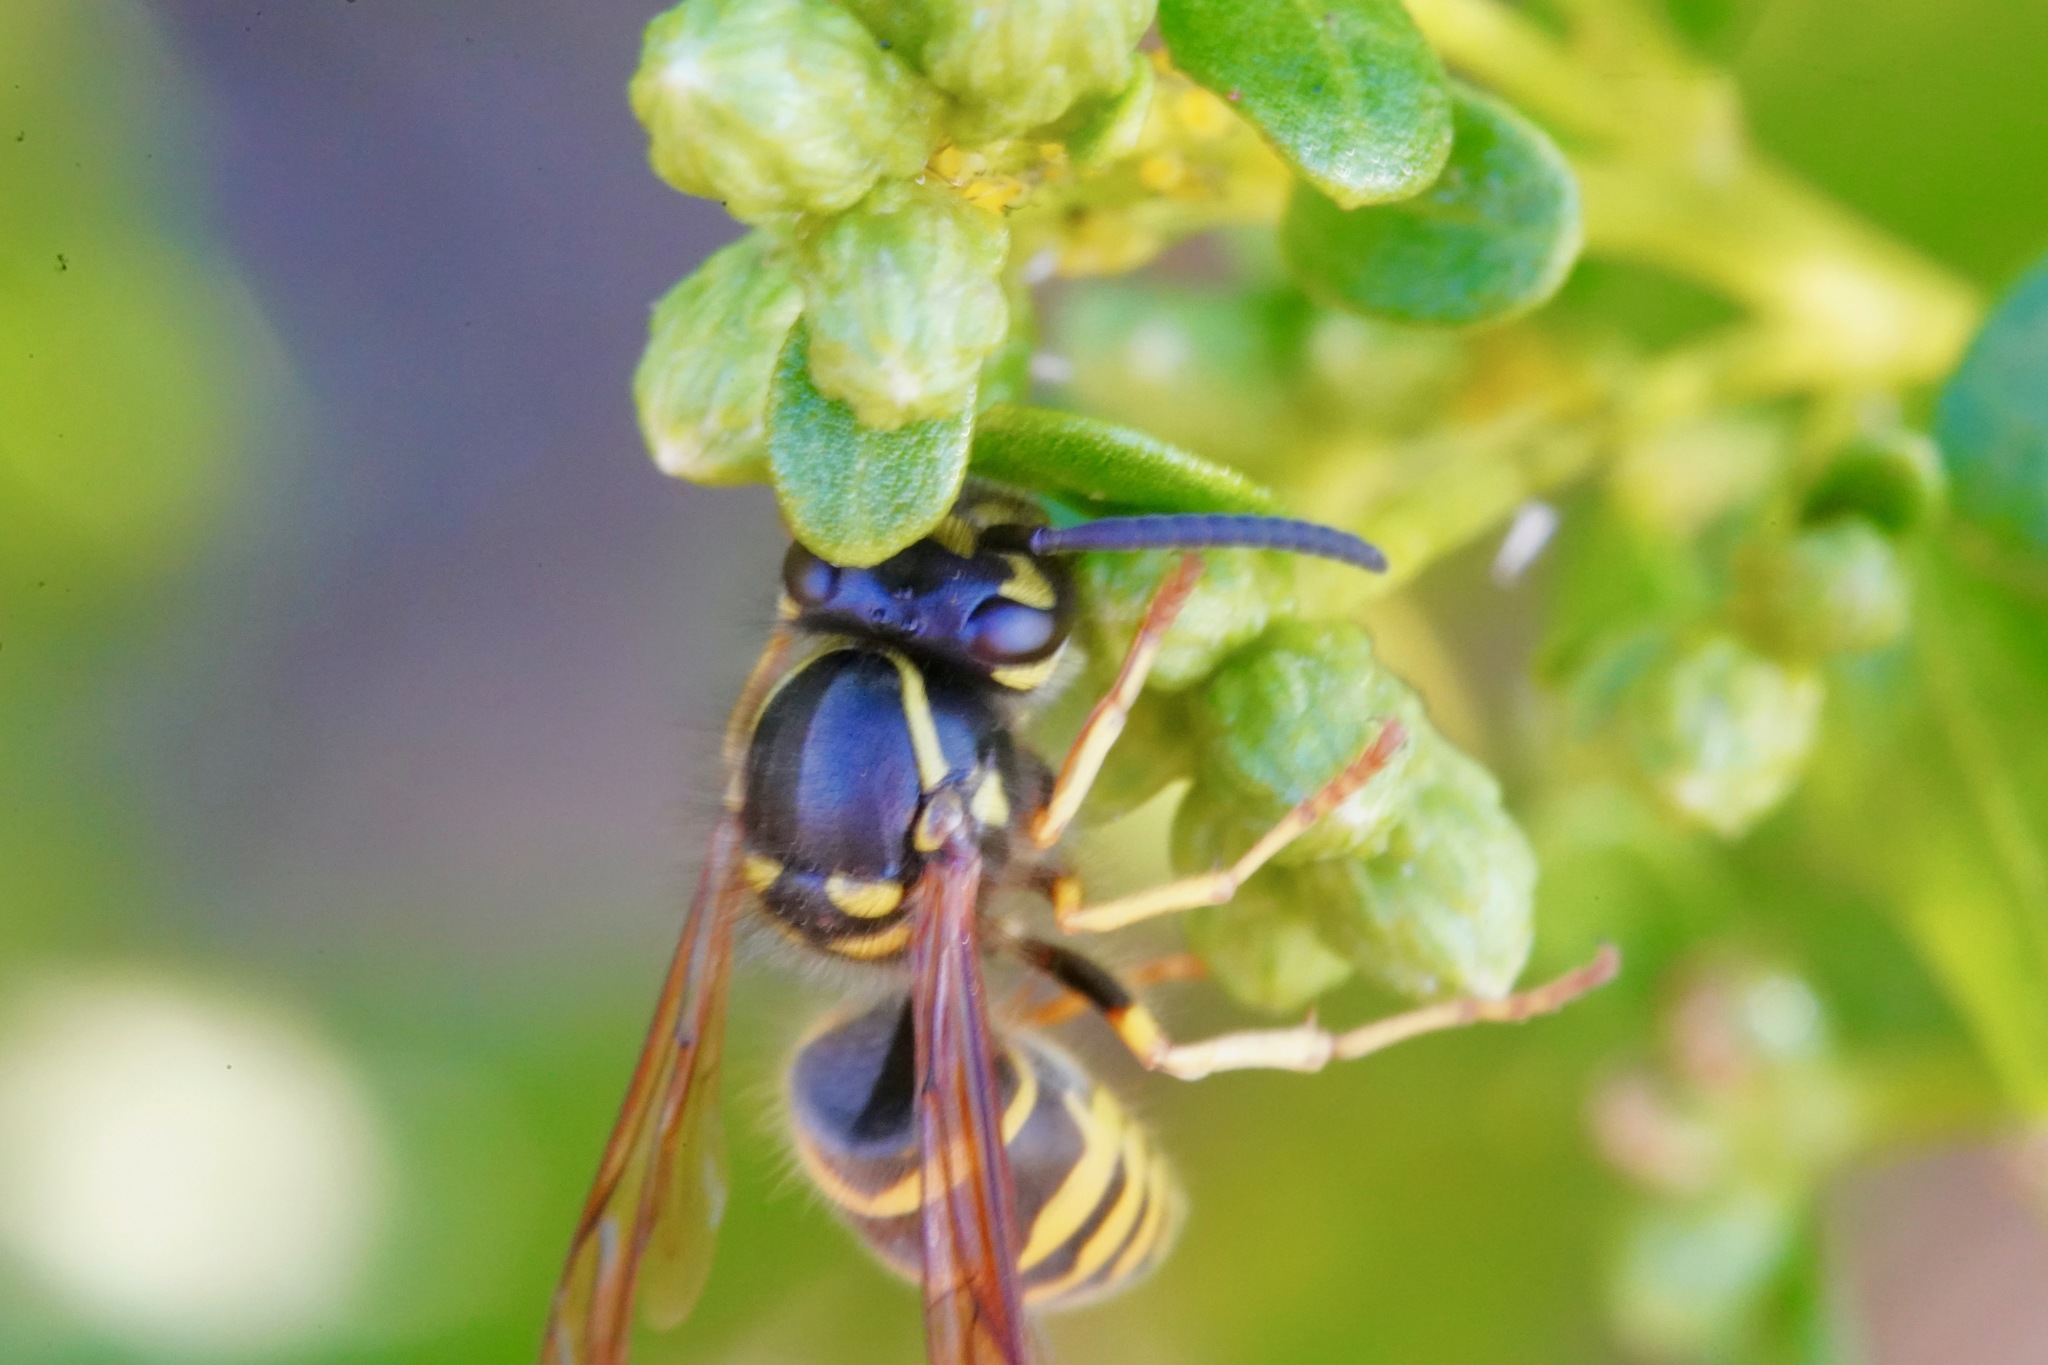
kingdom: Animalia
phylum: Arthropoda
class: Insecta
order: Hymenoptera
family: Vespidae
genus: Vespula
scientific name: Vespula alascensis
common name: Alaska yellowjacket
